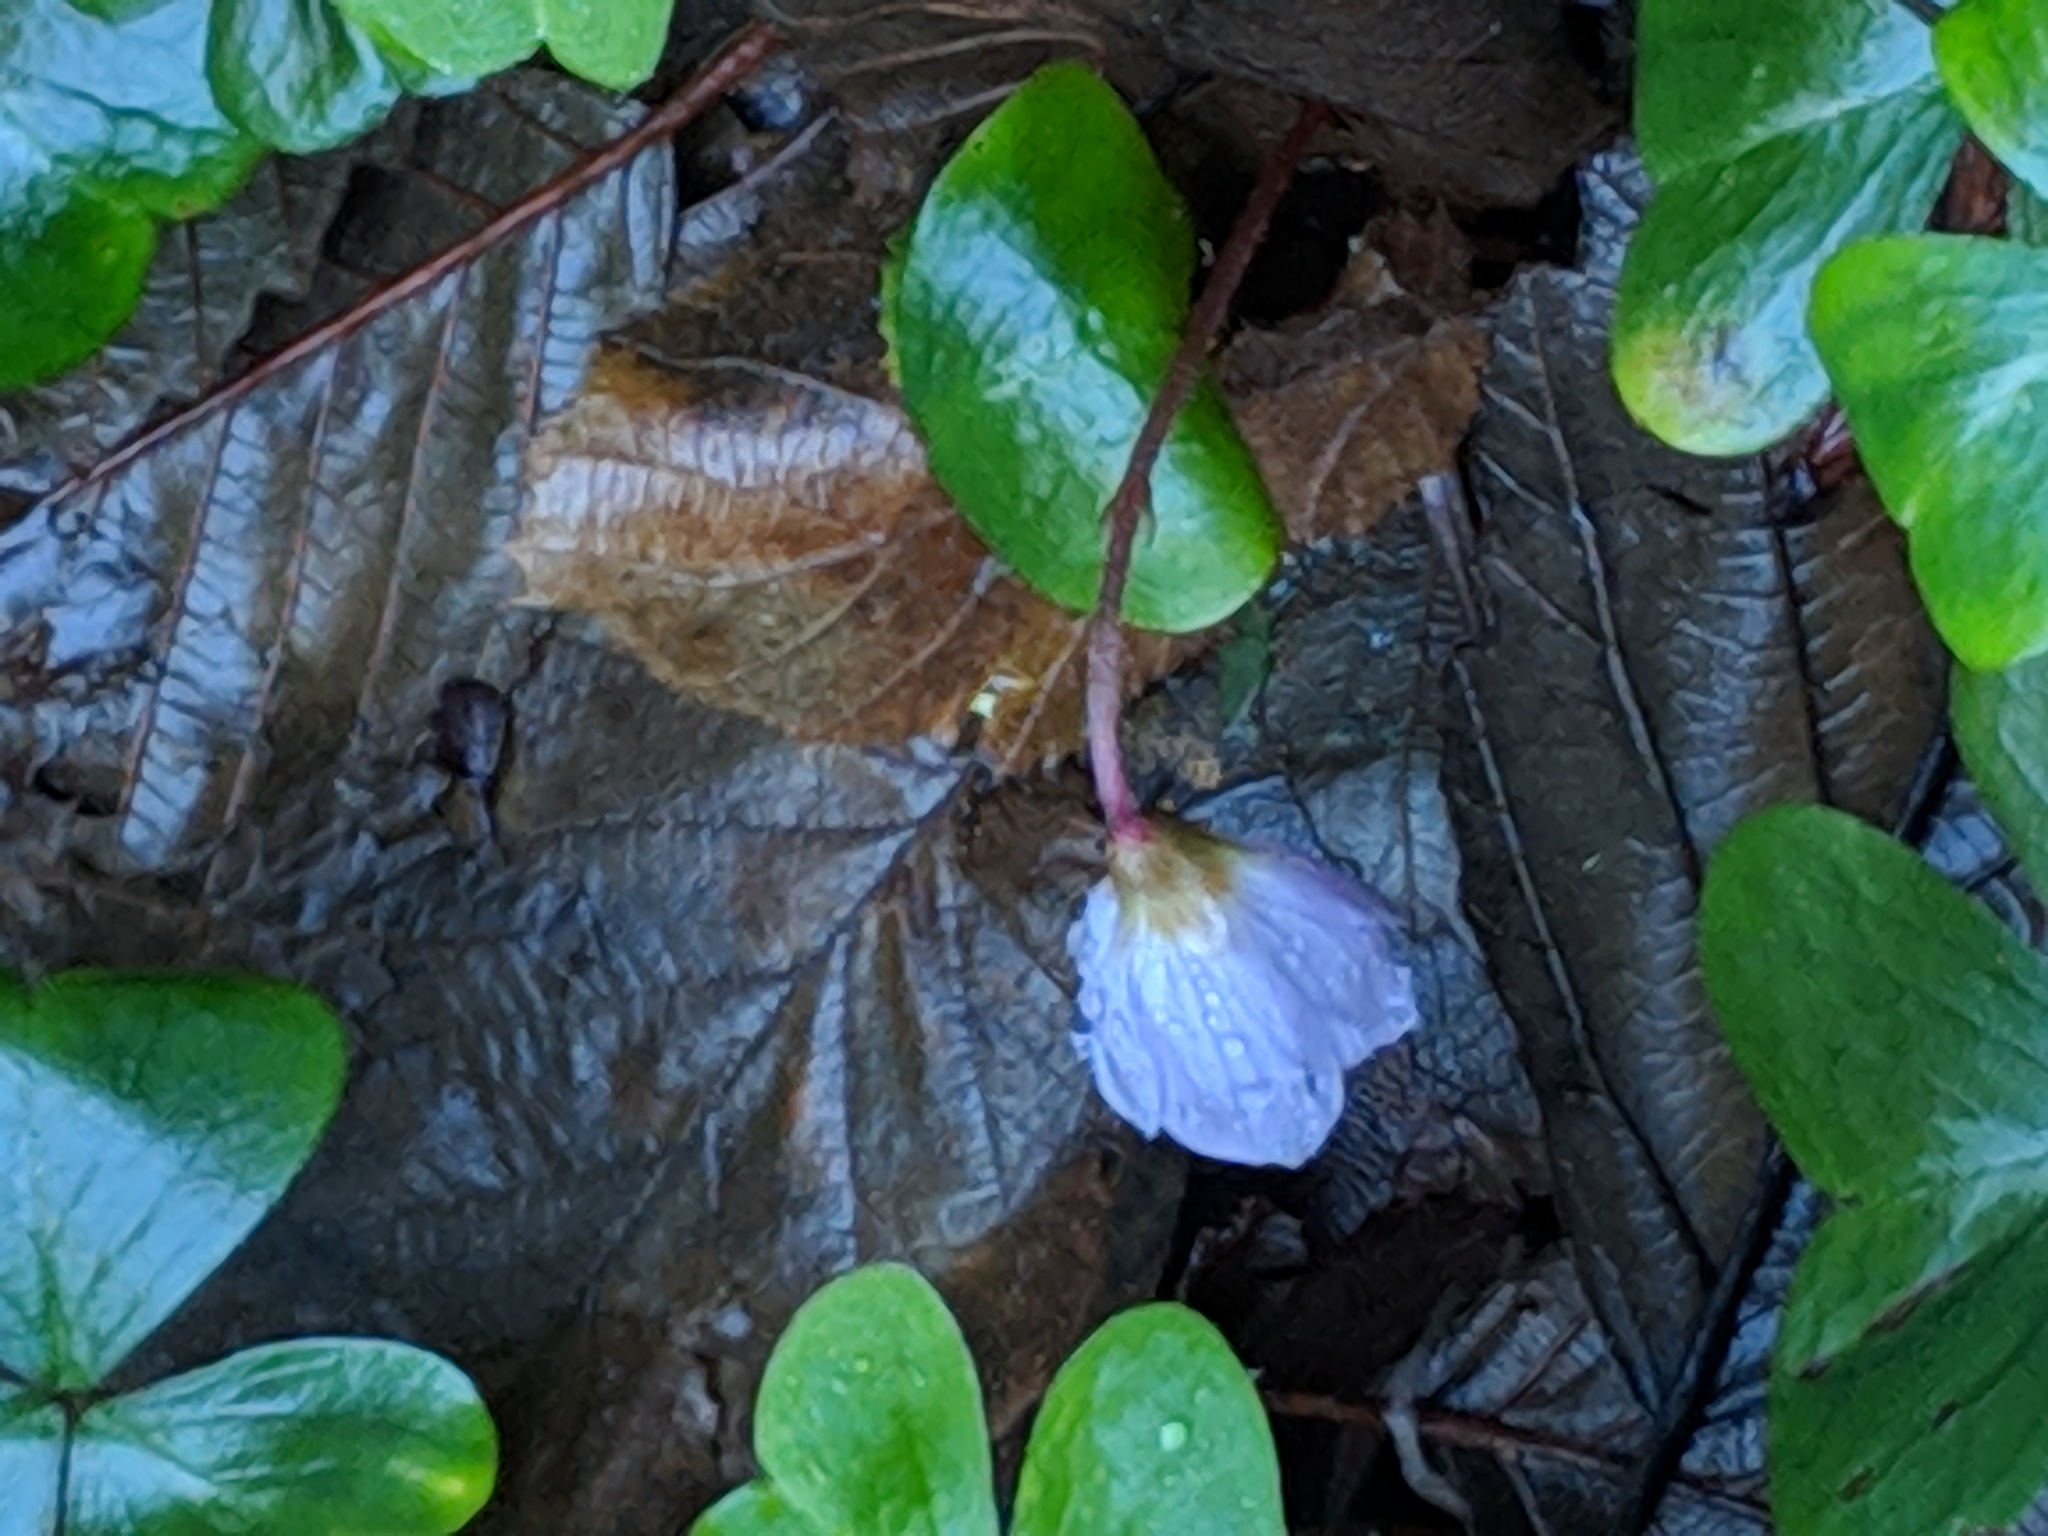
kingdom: Plantae
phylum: Tracheophyta
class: Magnoliopsida
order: Oxalidales
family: Oxalidaceae
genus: Oxalis
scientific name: Oxalis oregana
